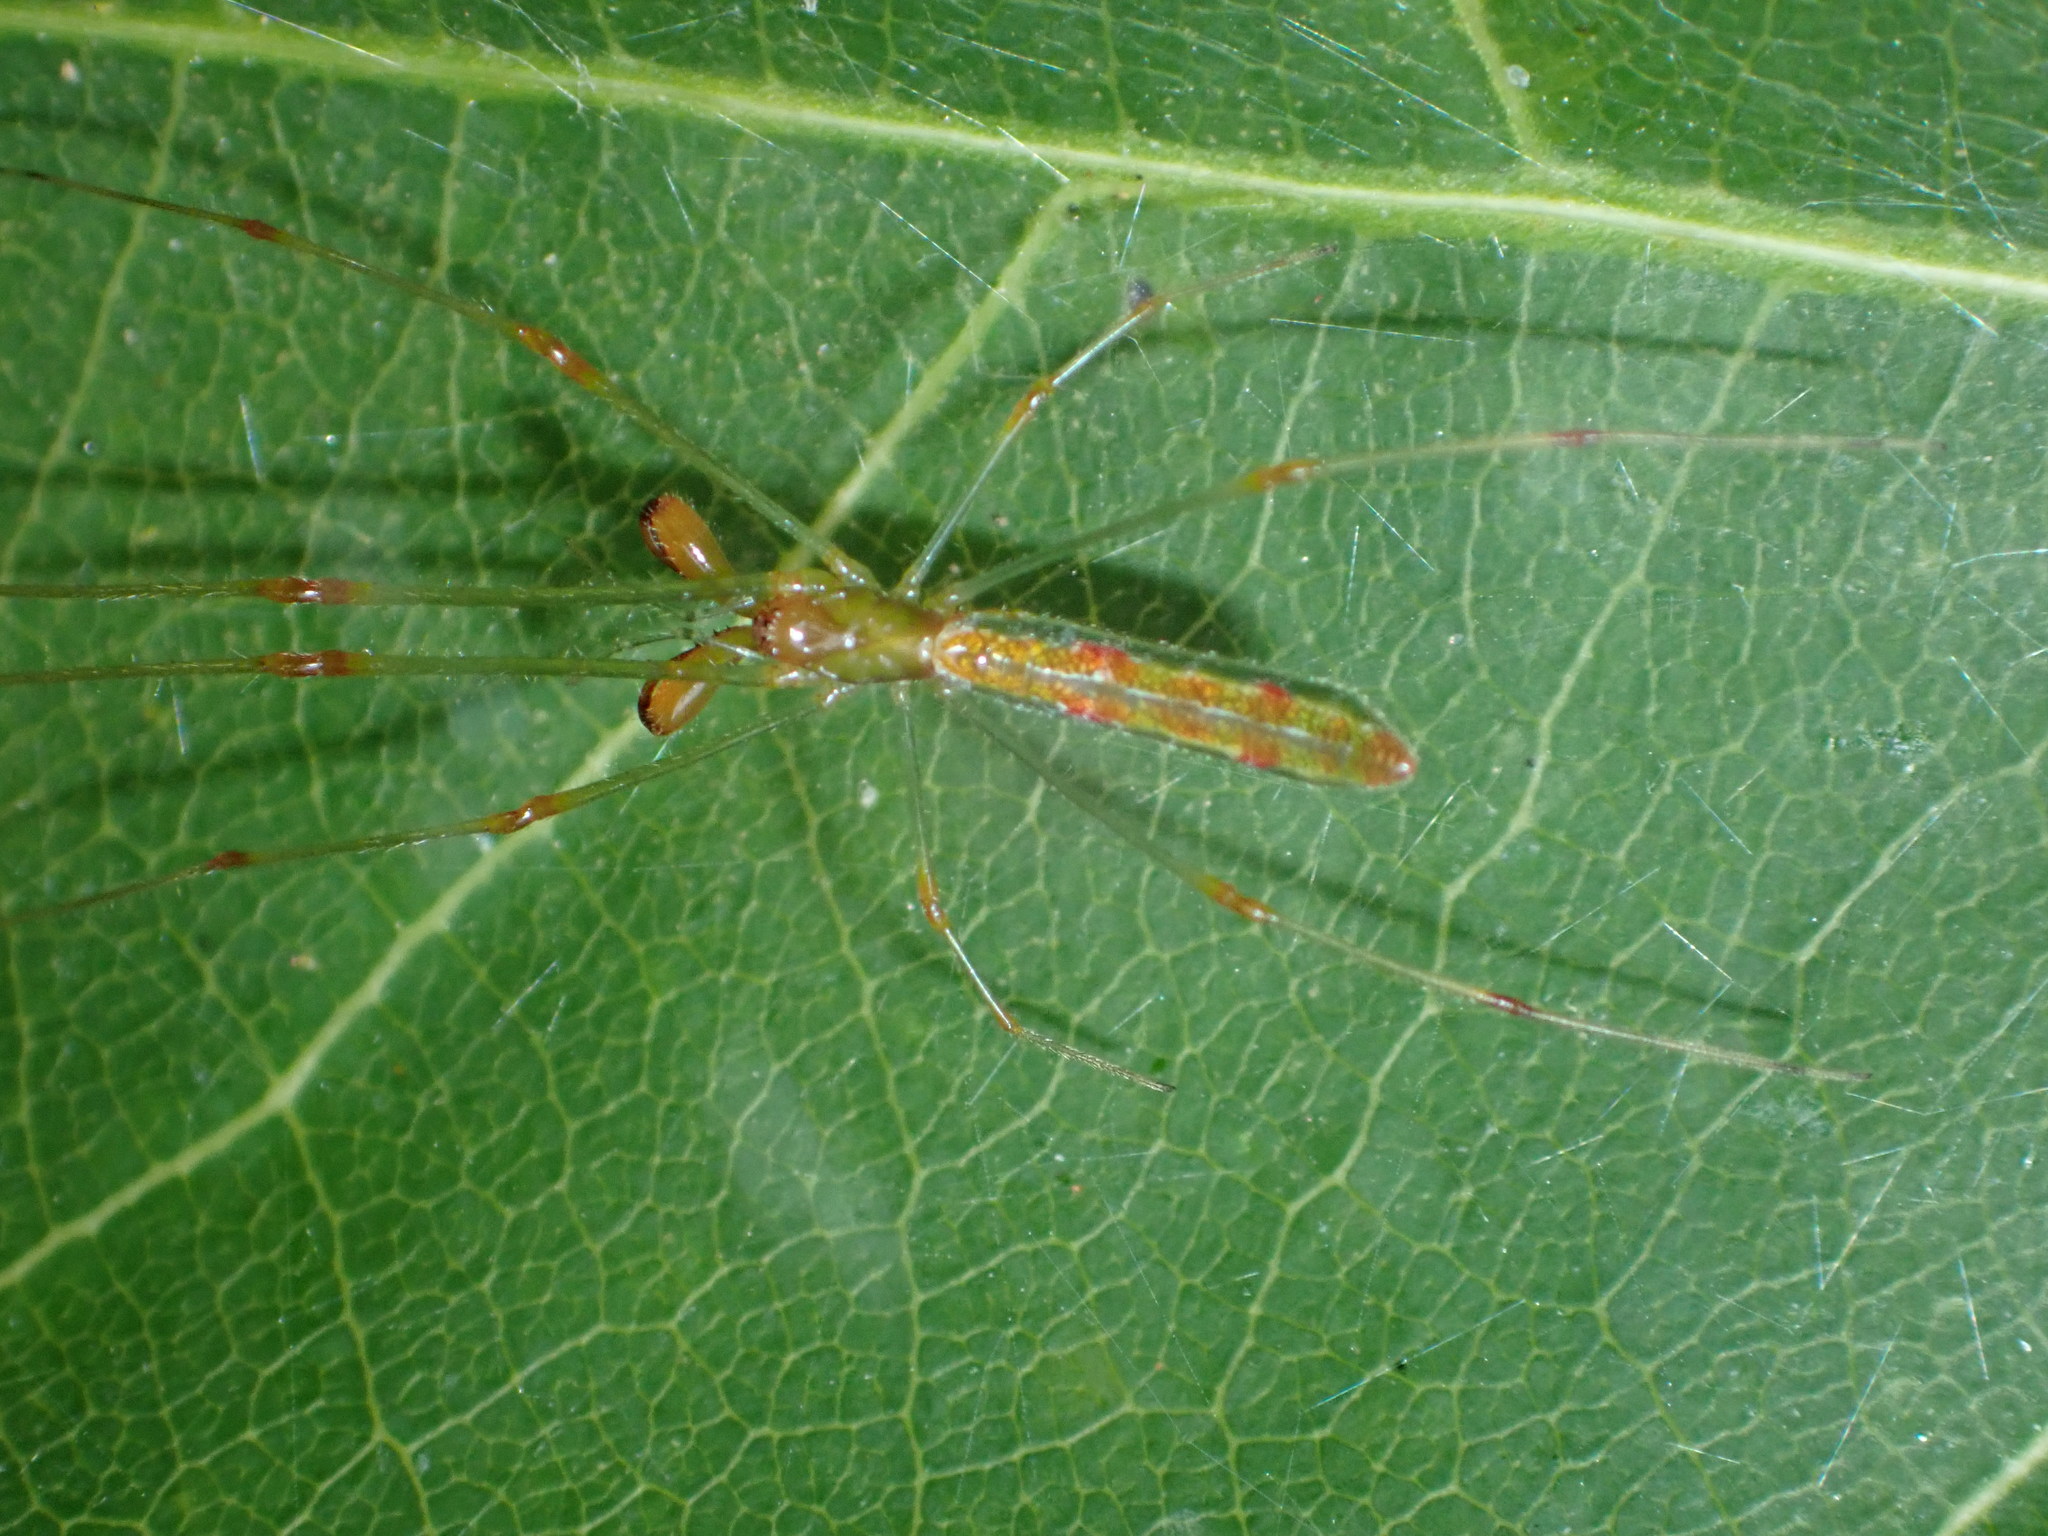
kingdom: Animalia
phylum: Arthropoda
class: Arachnida
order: Araneae
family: Tetragnathidae
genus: Tetragnatha
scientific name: Tetragnatha hasselti
